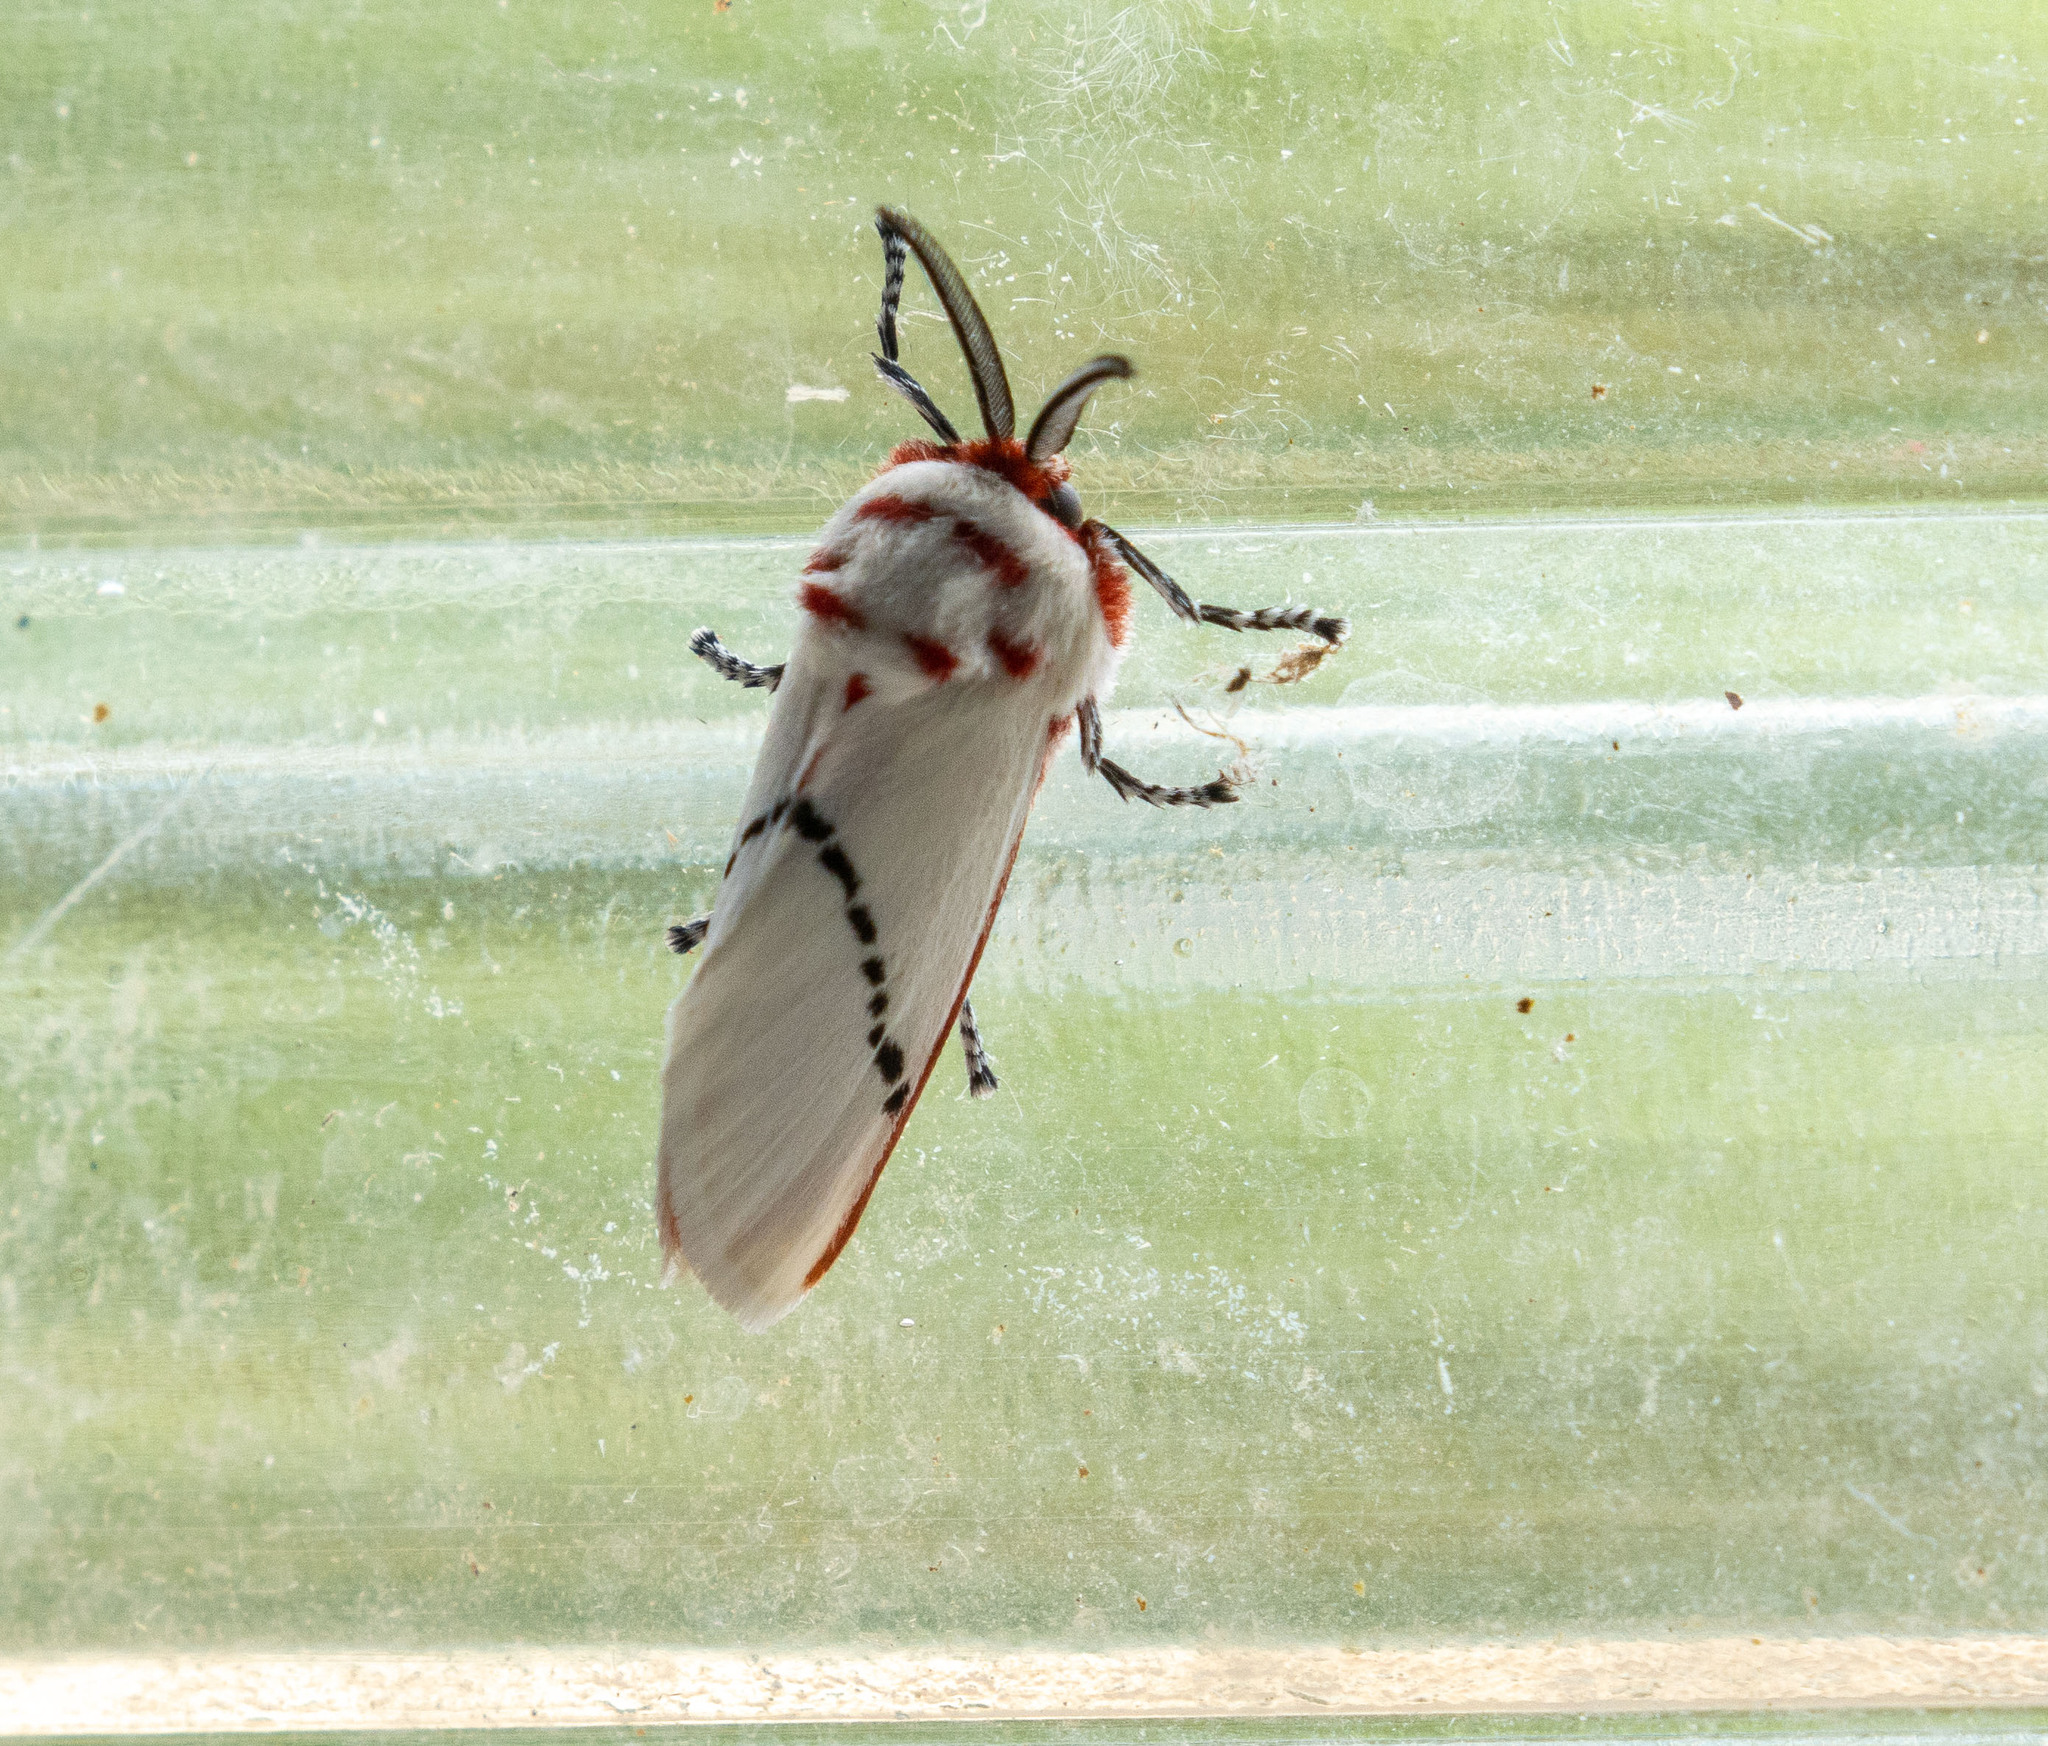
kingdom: Animalia
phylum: Arthropoda
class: Insecta
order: Lepidoptera
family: Megalopygidae
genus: Trosia
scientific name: Trosia donckieri
